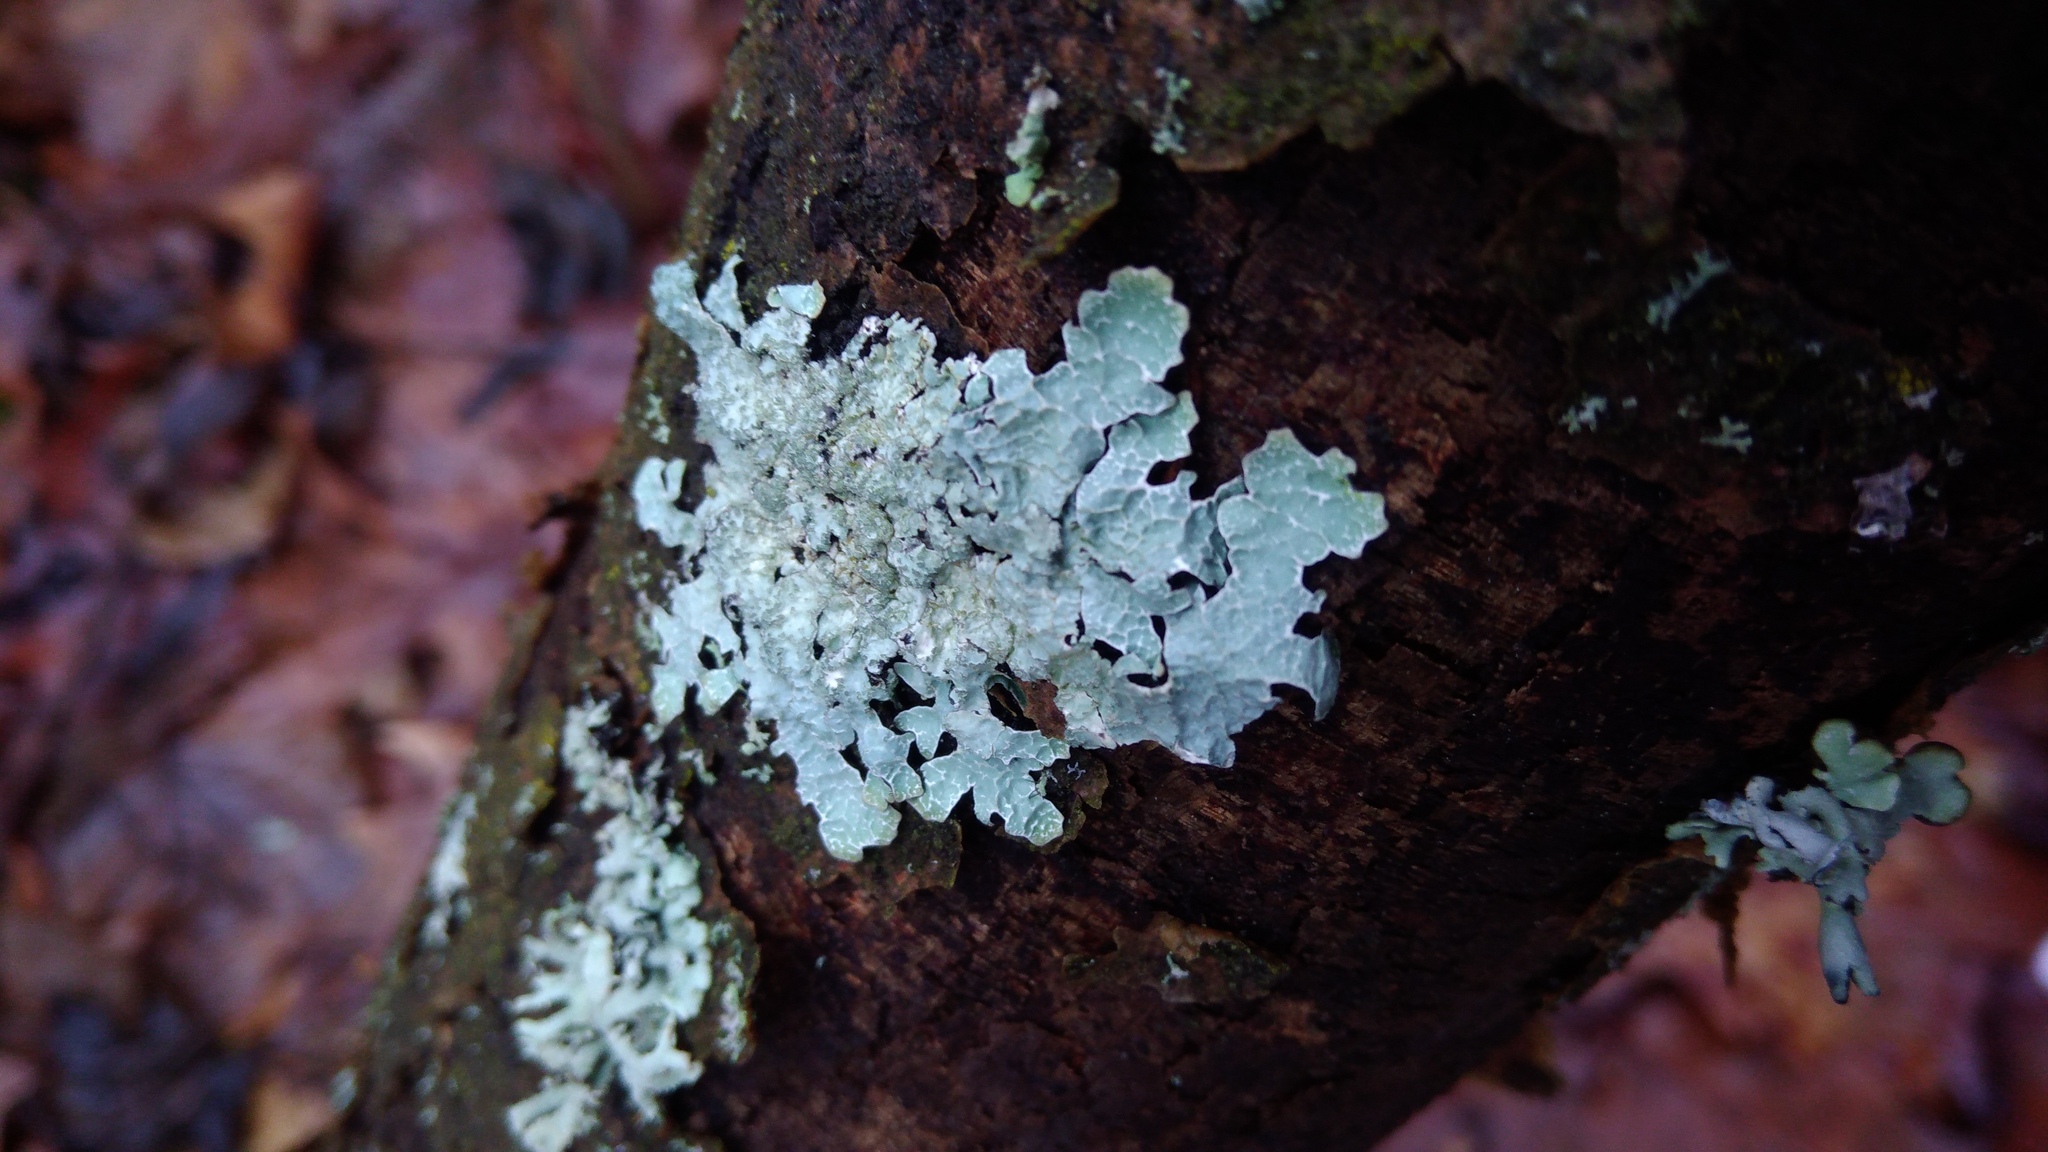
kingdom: Fungi
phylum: Ascomycota
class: Lecanoromycetes
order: Lecanorales
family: Parmeliaceae
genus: Parmelia
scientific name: Parmelia sulcata
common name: Netted shield lichen
